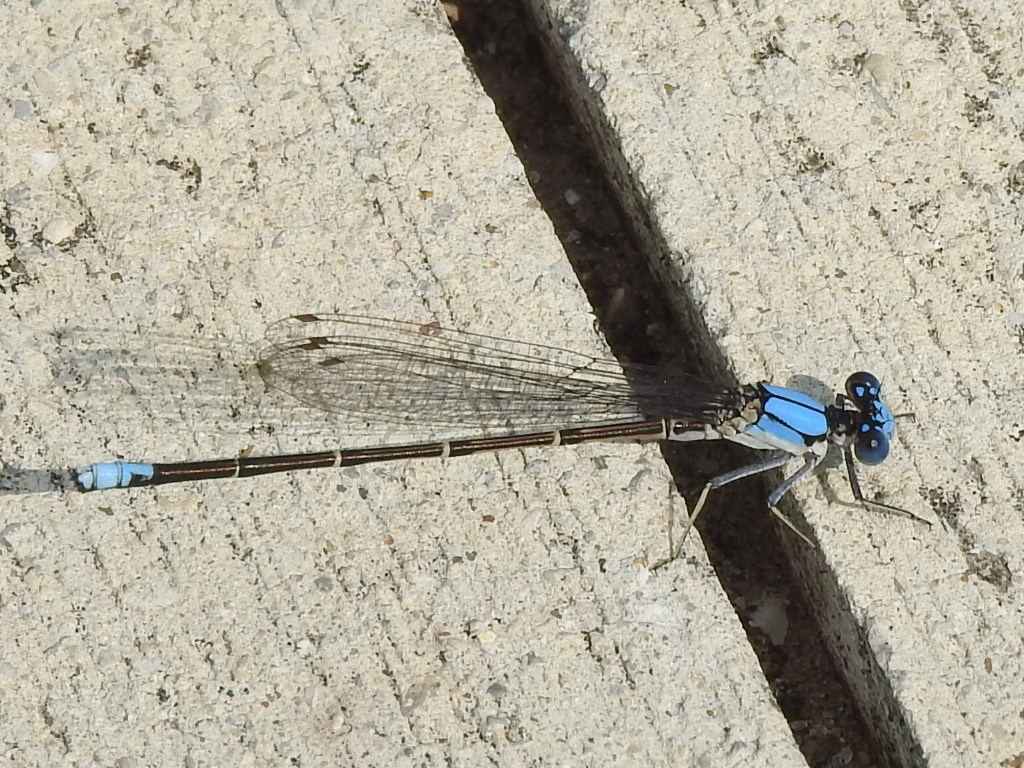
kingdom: Animalia
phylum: Arthropoda
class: Insecta
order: Odonata
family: Coenagrionidae
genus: Argia
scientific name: Argia apicalis
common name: Blue-fronted dancer
